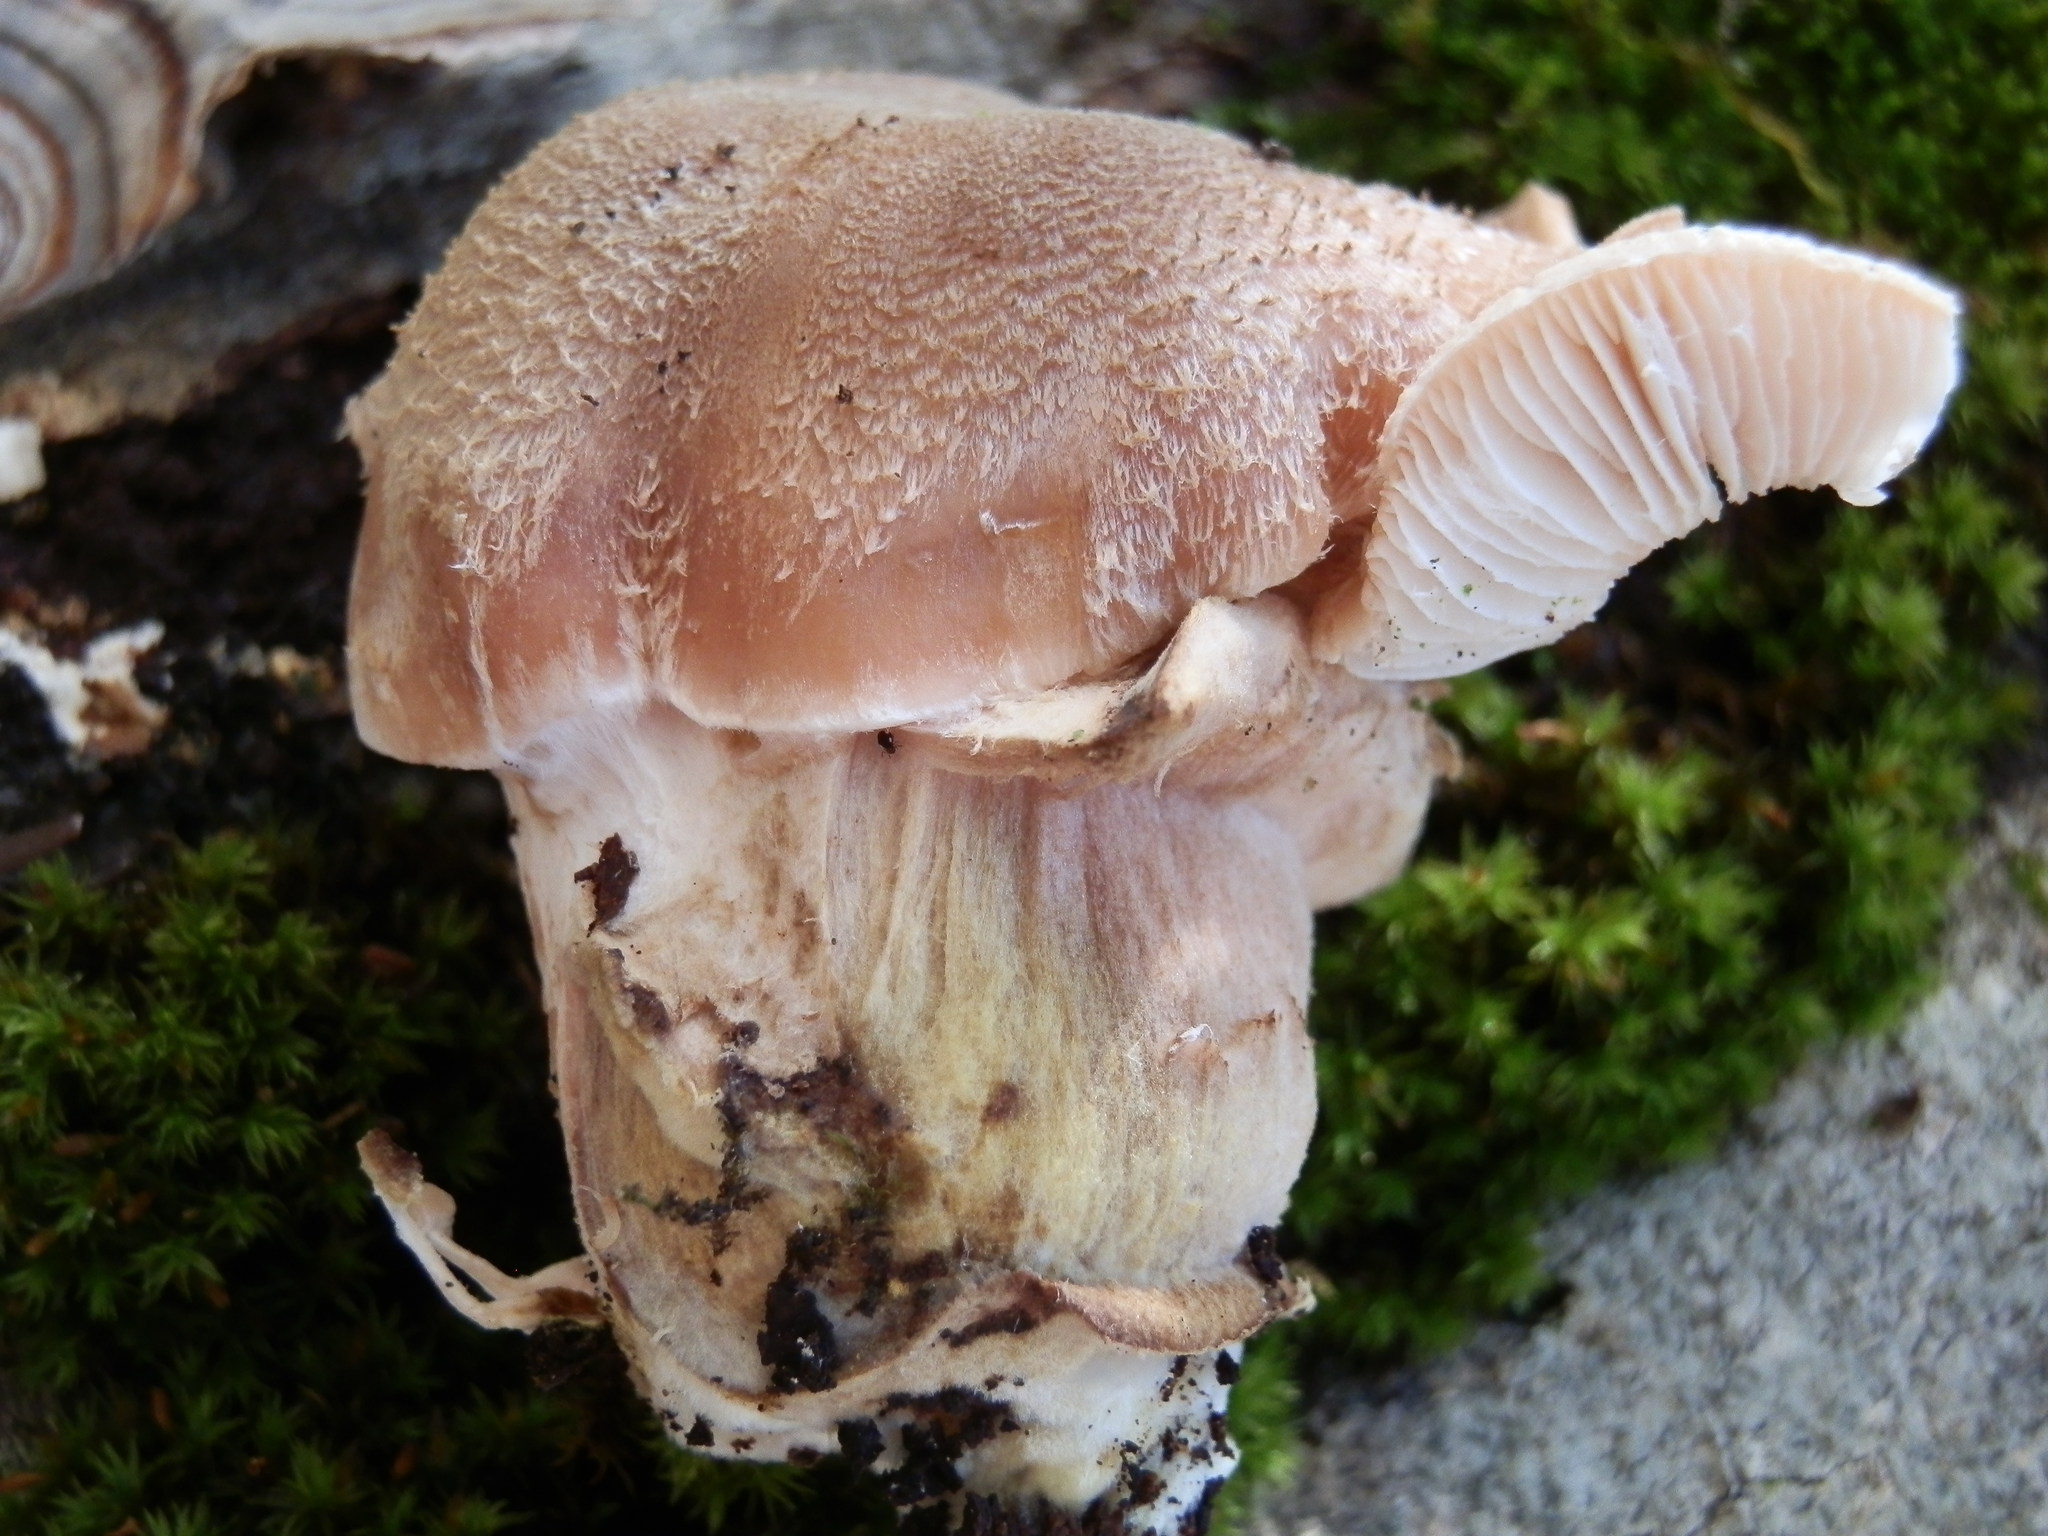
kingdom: Fungi
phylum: Basidiomycota
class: Agaricomycetes
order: Agaricales
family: Physalacriaceae
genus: Armillaria
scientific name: Armillaria gallica
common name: Bulbous honey fungus
